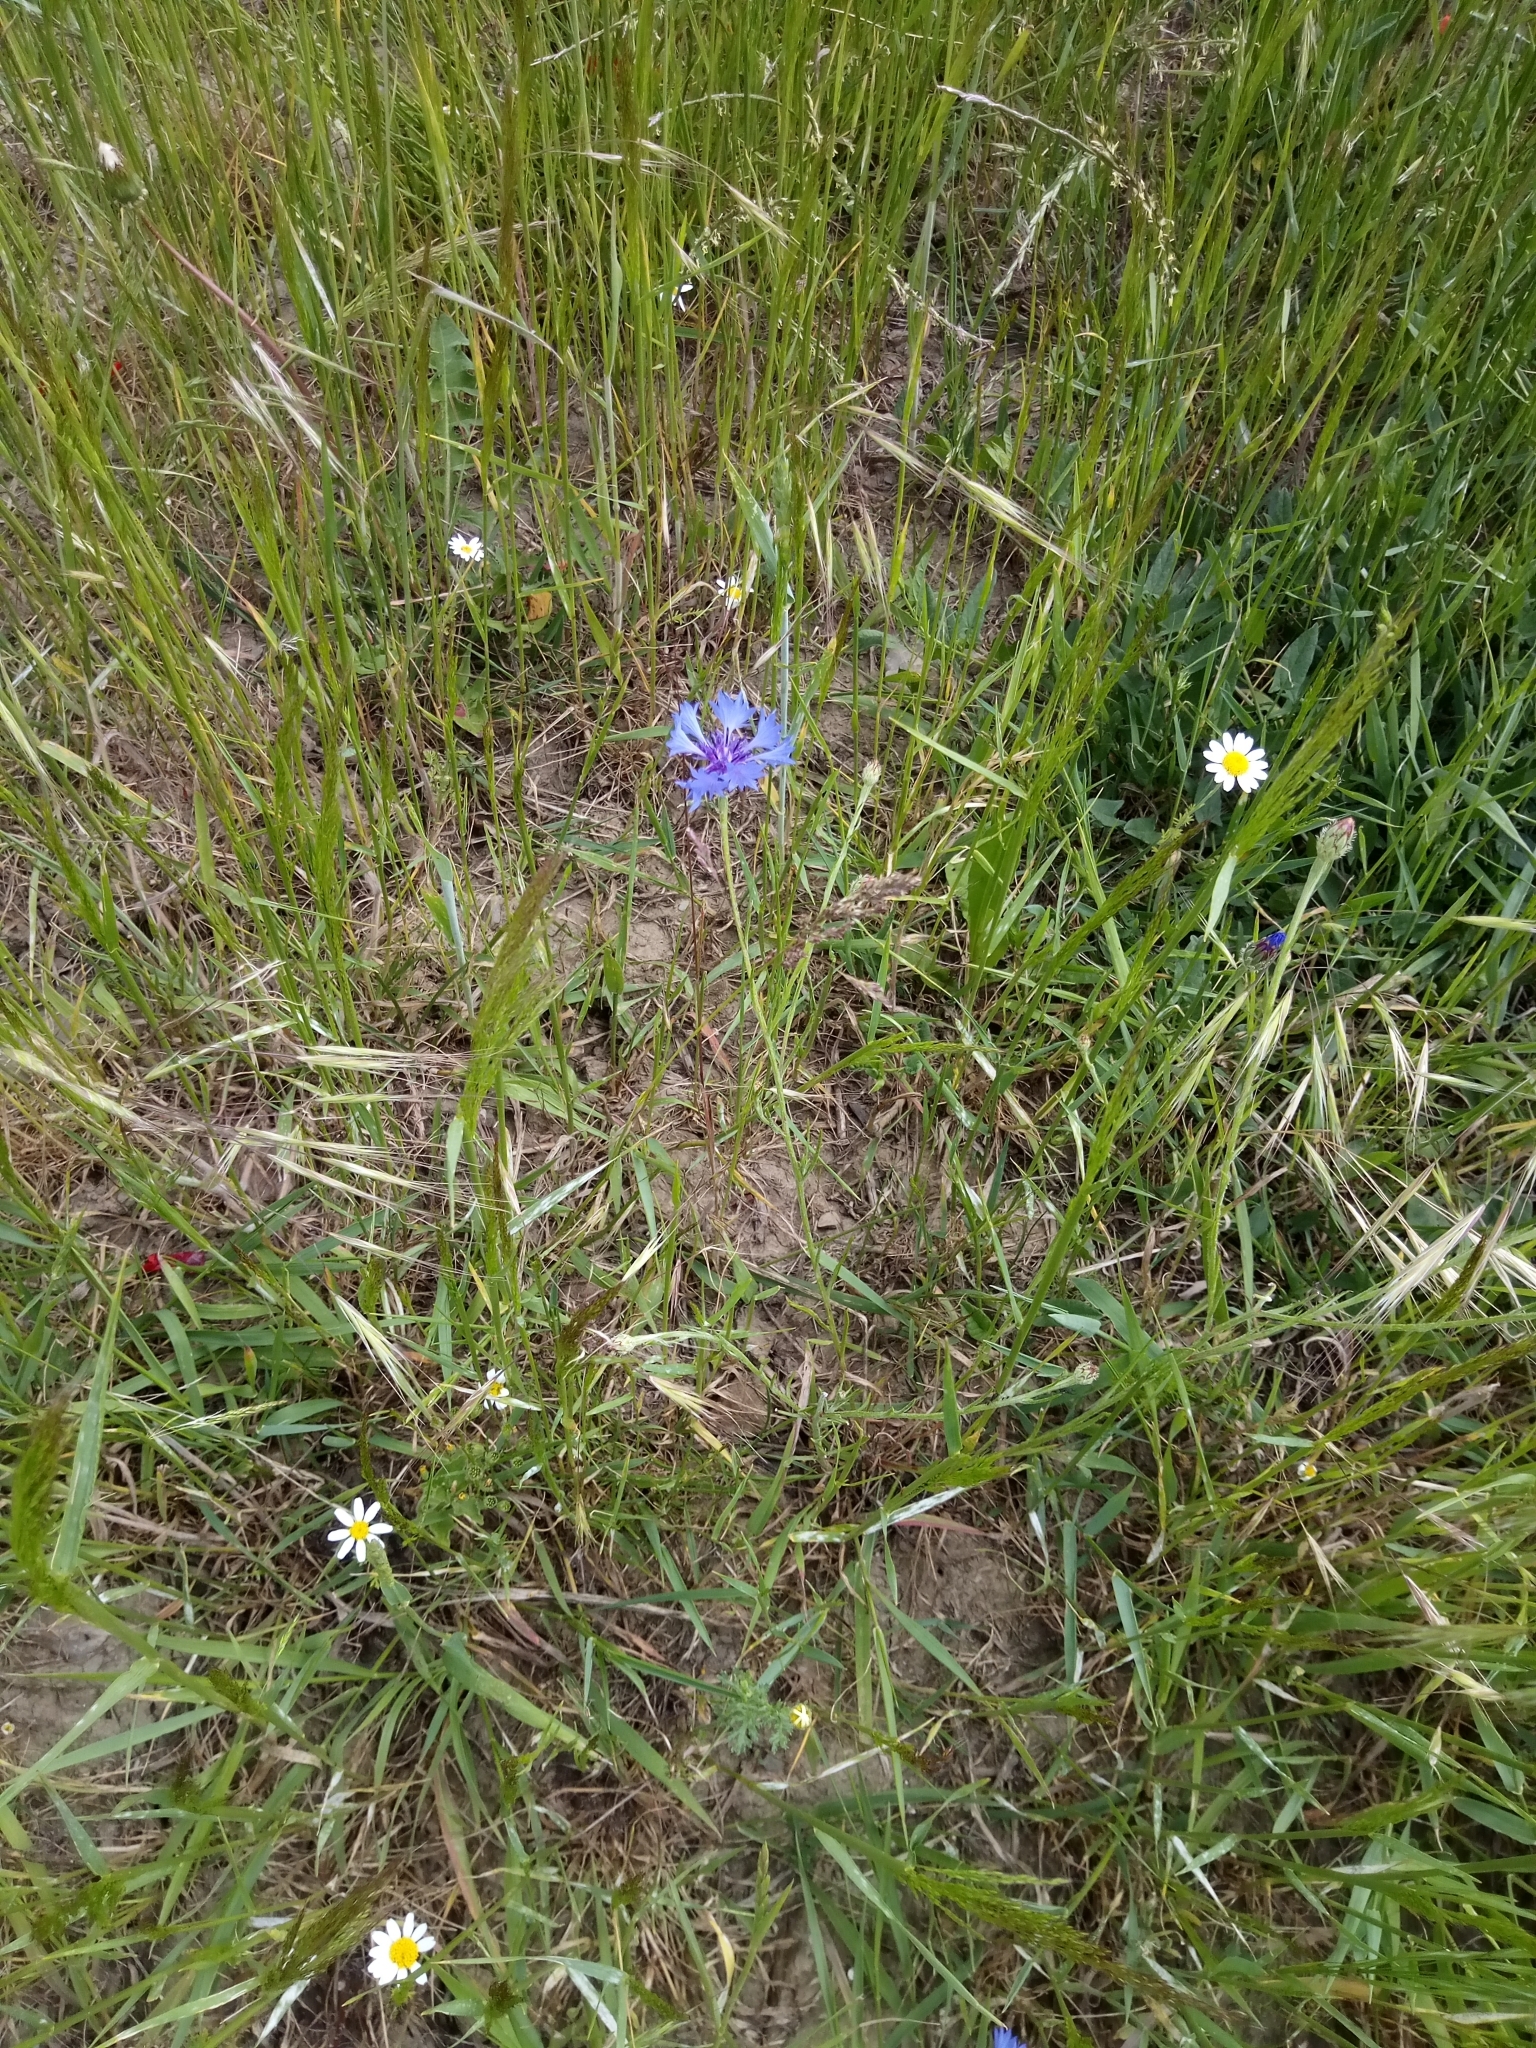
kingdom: Plantae
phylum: Tracheophyta
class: Magnoliopsida
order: Asterales
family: Asteraceae
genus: Centaurea
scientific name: Centaurea cyanus
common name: Cornflower
